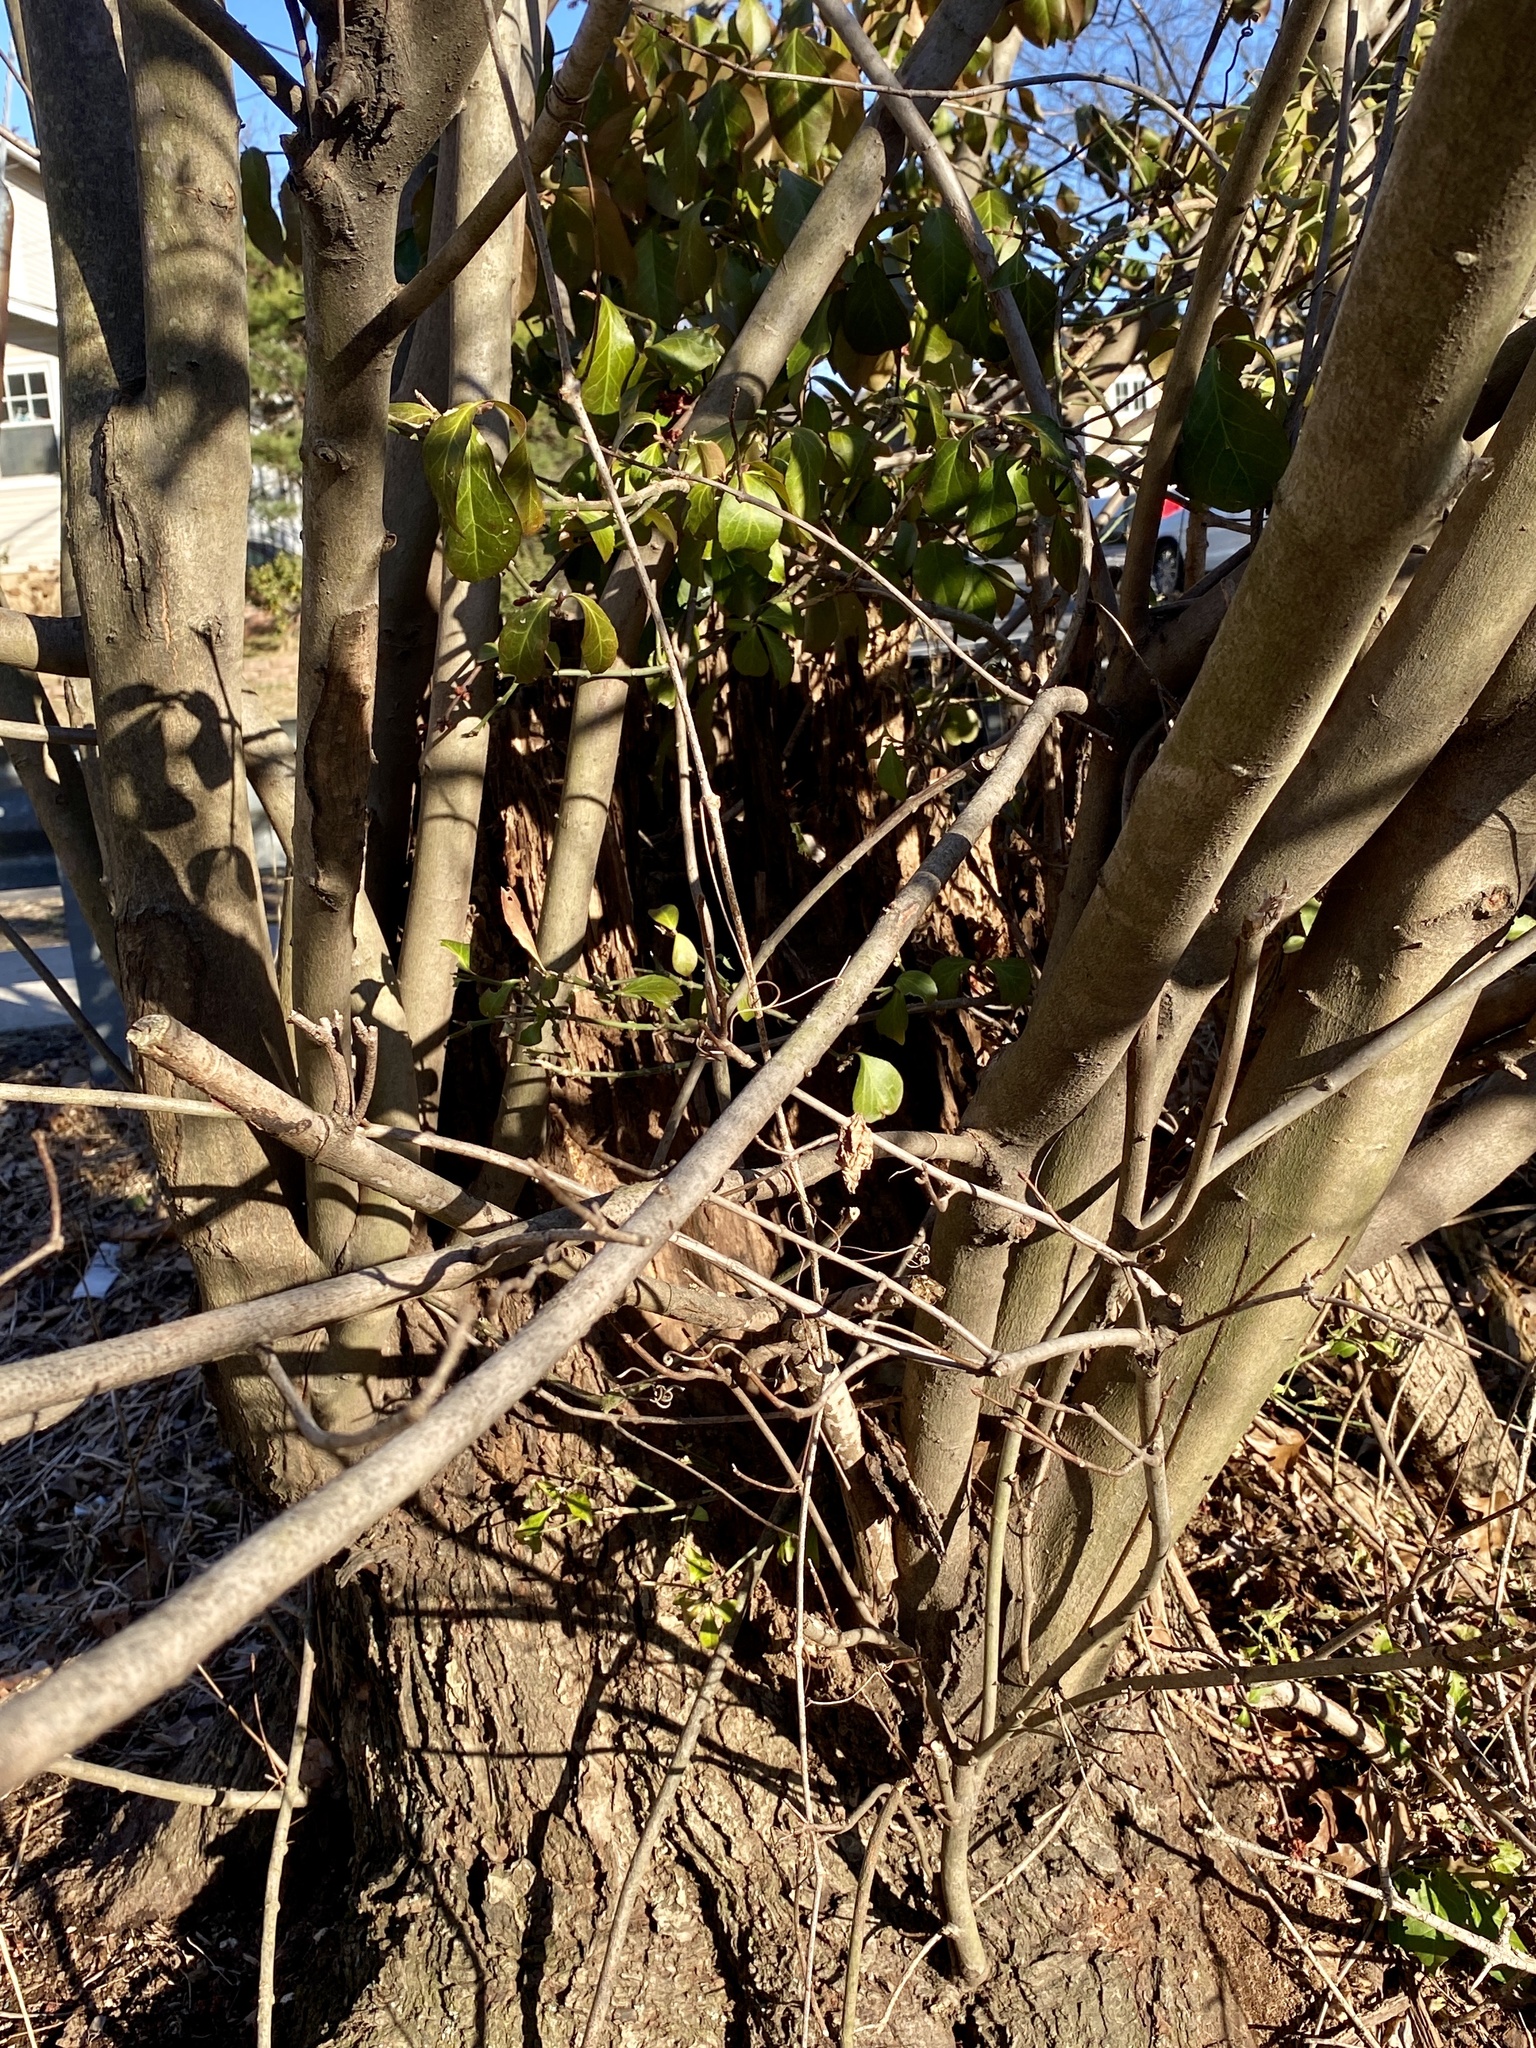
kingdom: Plantae
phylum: Tracheophyta
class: Magnoliopsida
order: Sapindales
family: Sapindaceae
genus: Acer
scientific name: Acer rubrum
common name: Red maple
